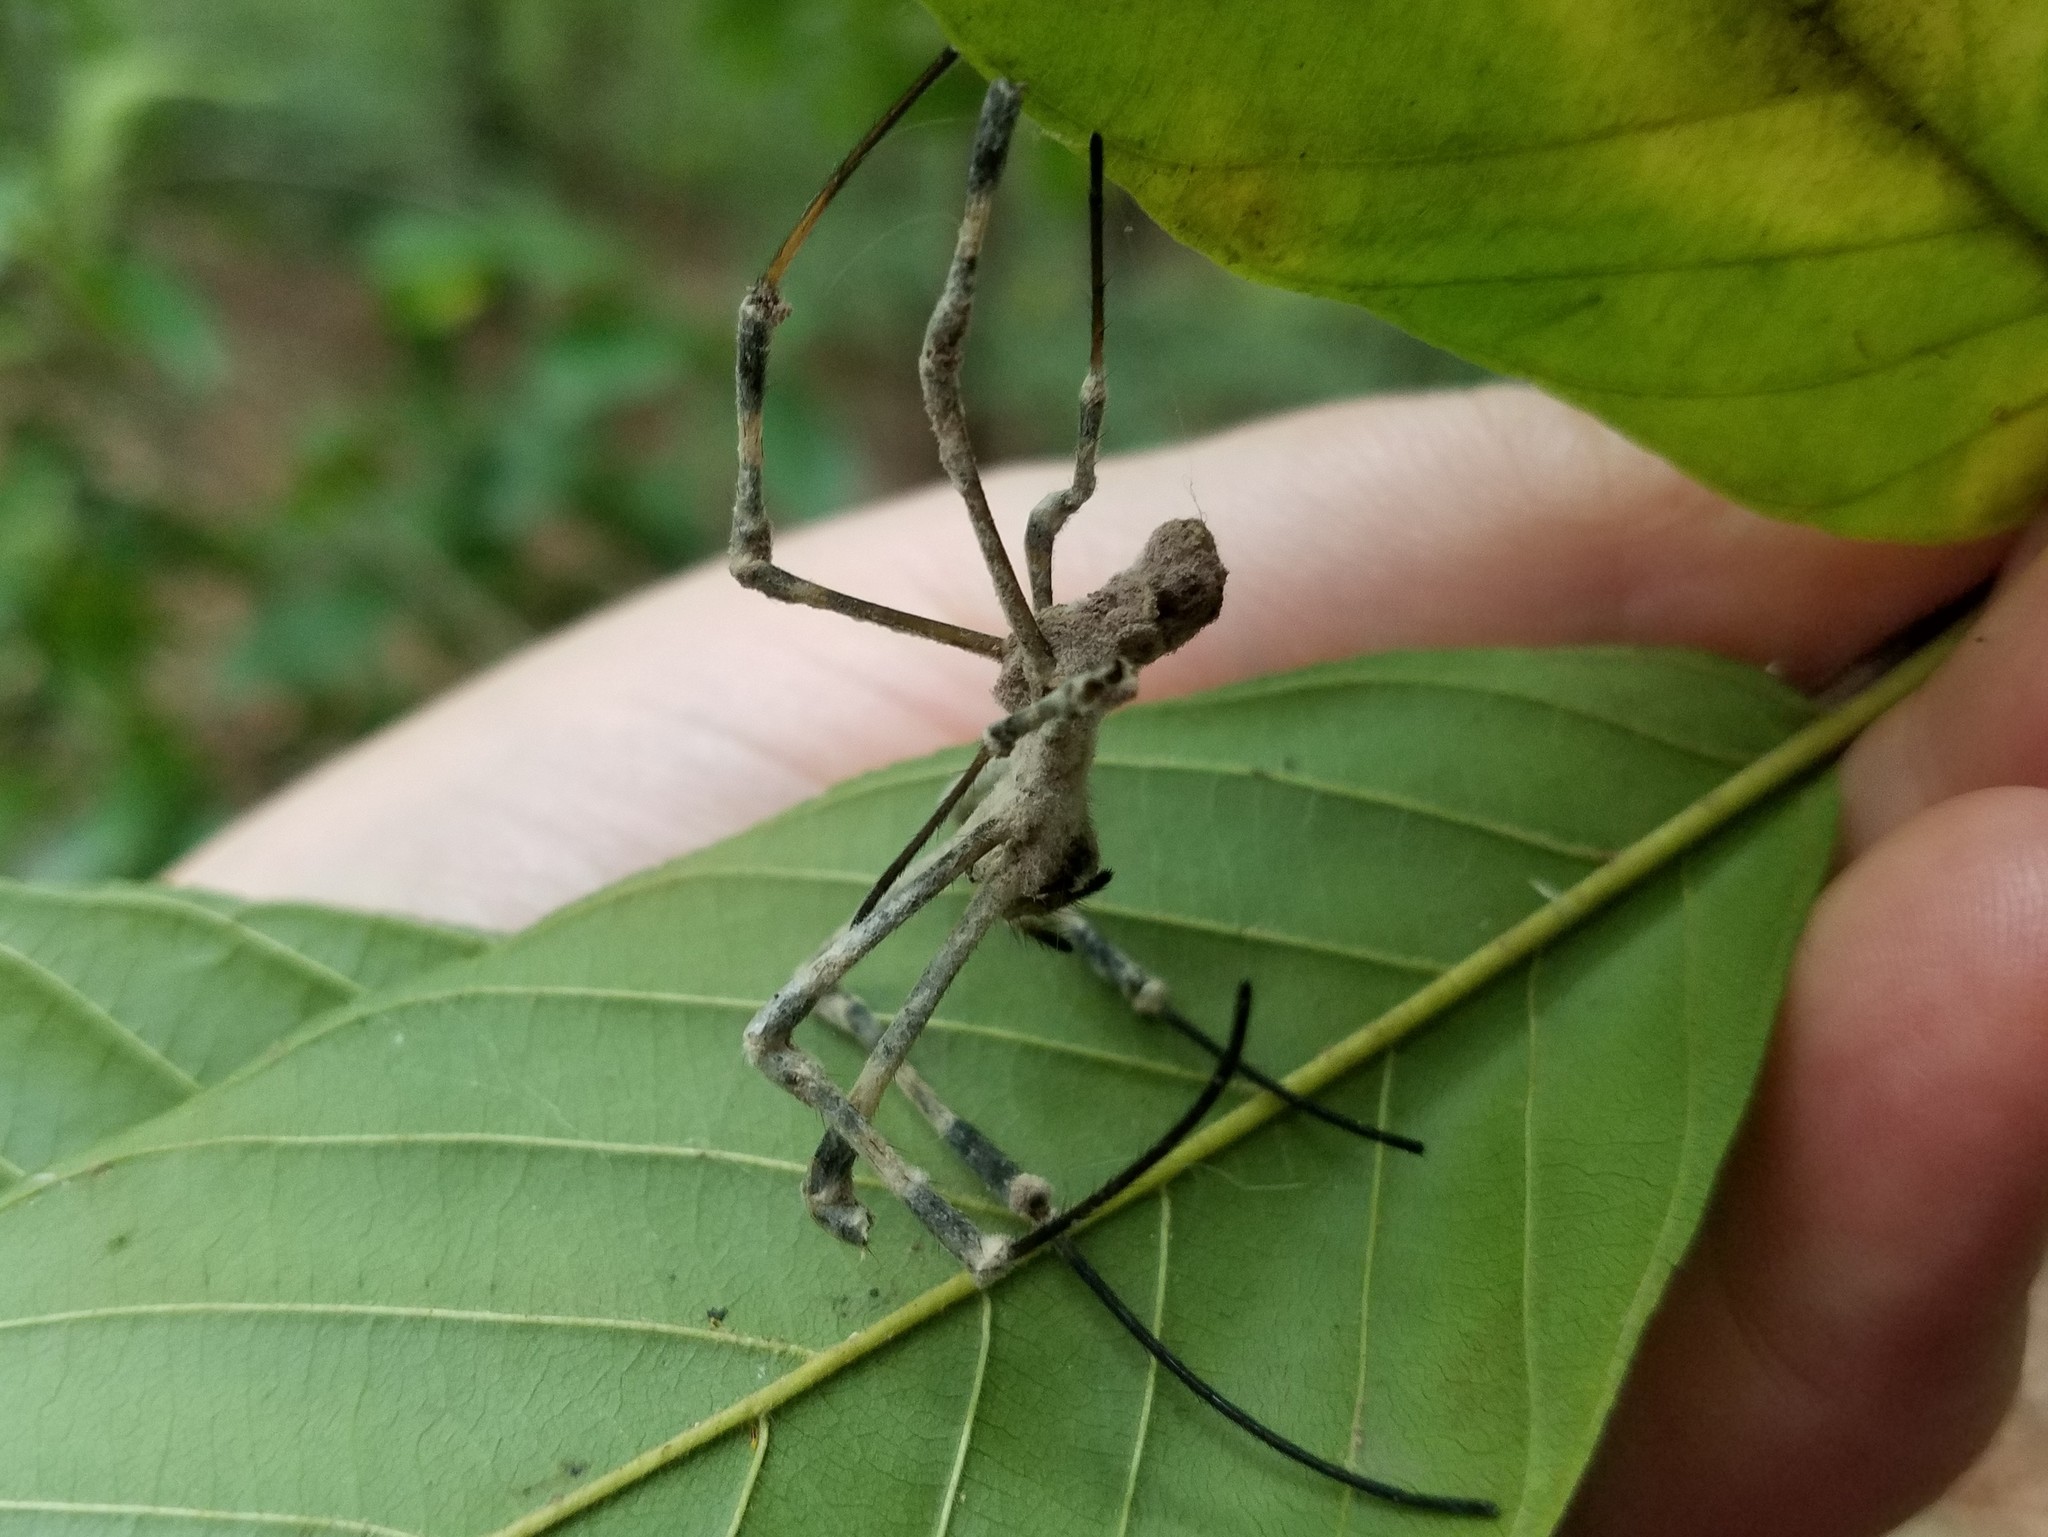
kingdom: Animalia
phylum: Arthropoda
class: Arachnida
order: Araneae
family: Araneidae
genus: Trichonephila
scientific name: Trichonephila clavata
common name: Jorō spider
